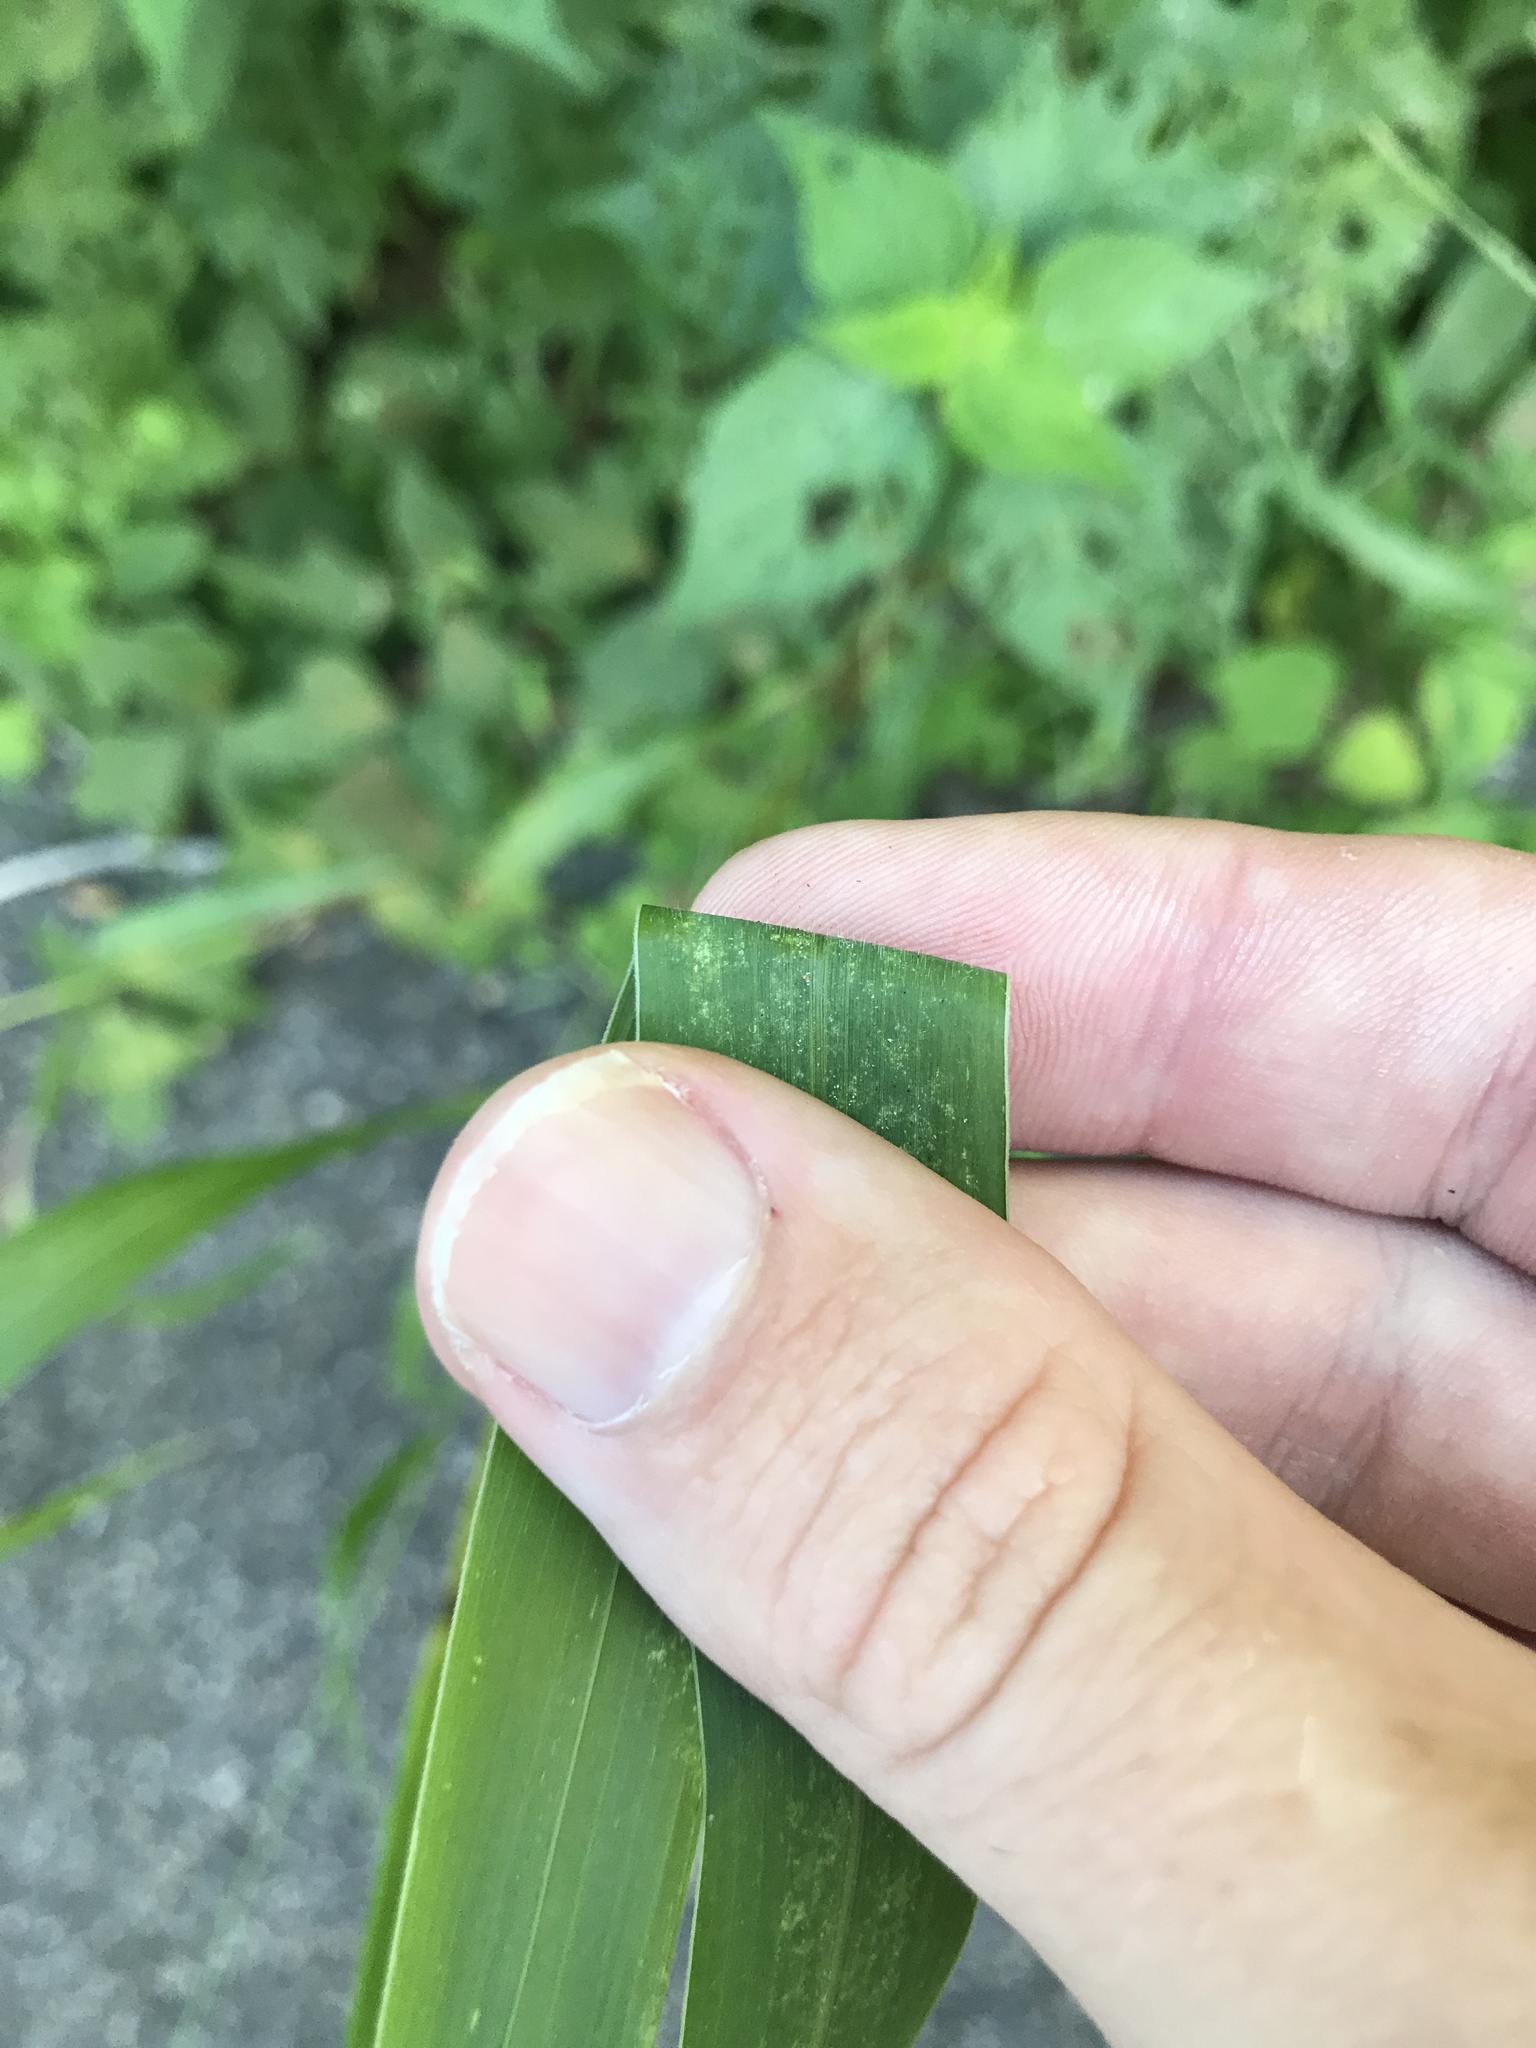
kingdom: Plantae
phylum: Tracheophyta
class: Liliopsida
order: Poales
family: Poaceae
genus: Setaria
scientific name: Setaria faberi
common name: Nodding bristle-grass
